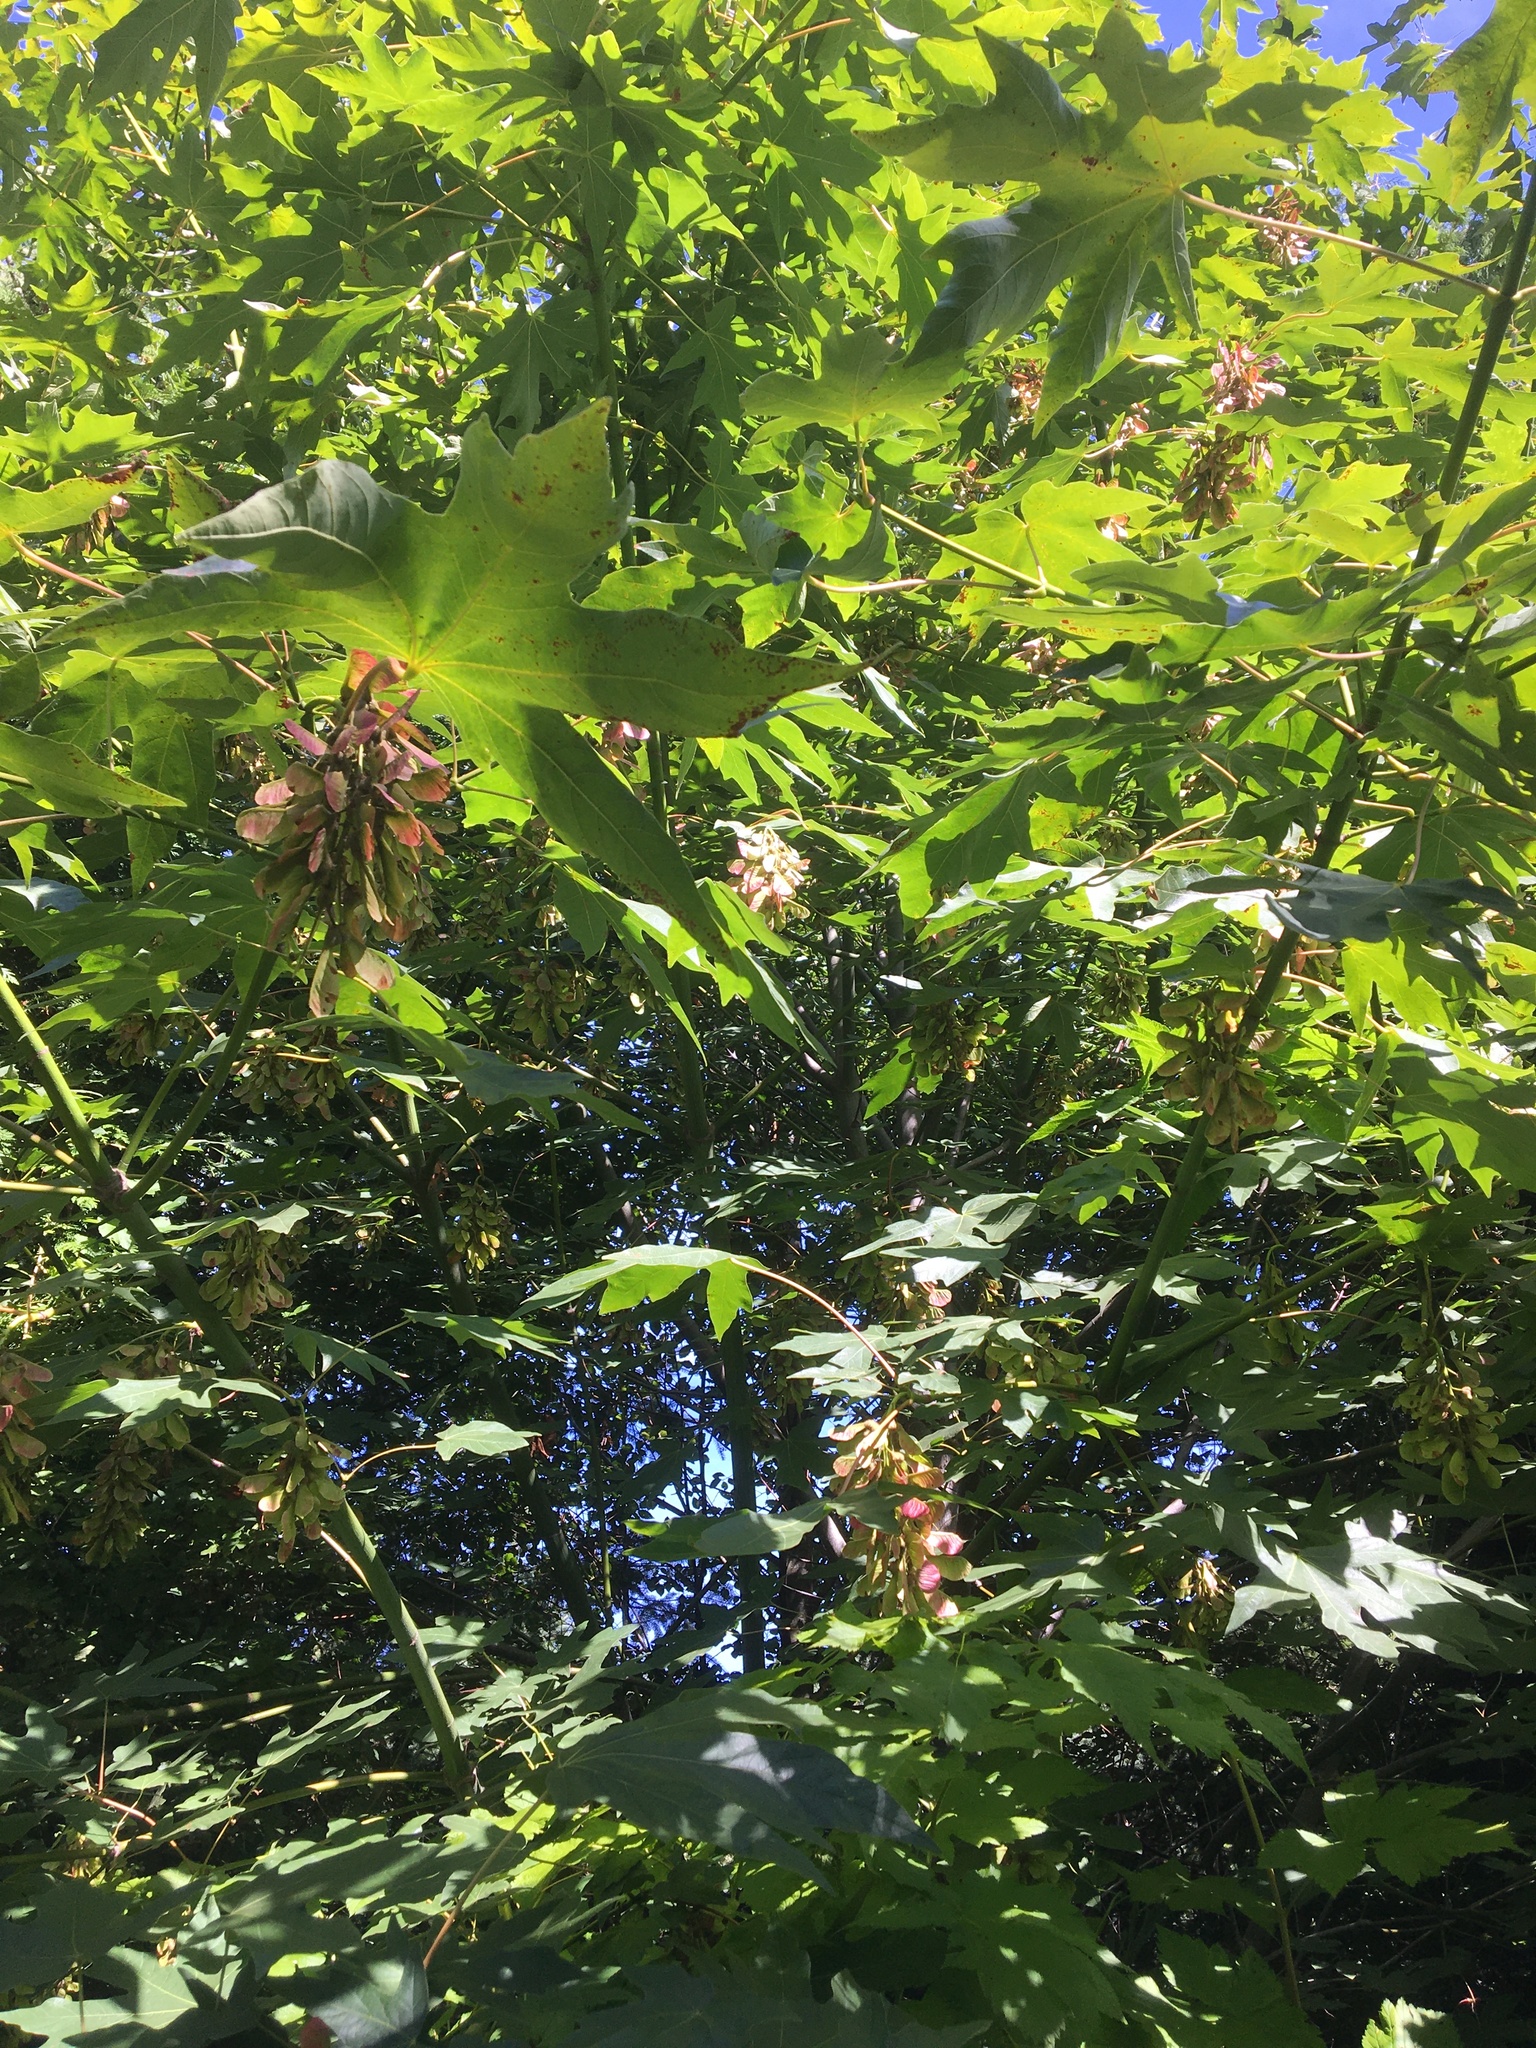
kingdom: Plantae
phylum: Tracheophyta
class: Magnoliopsida
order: Sapindales
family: Sapindaceae
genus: Acer
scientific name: Acer macrophyllum
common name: Oregon maple
